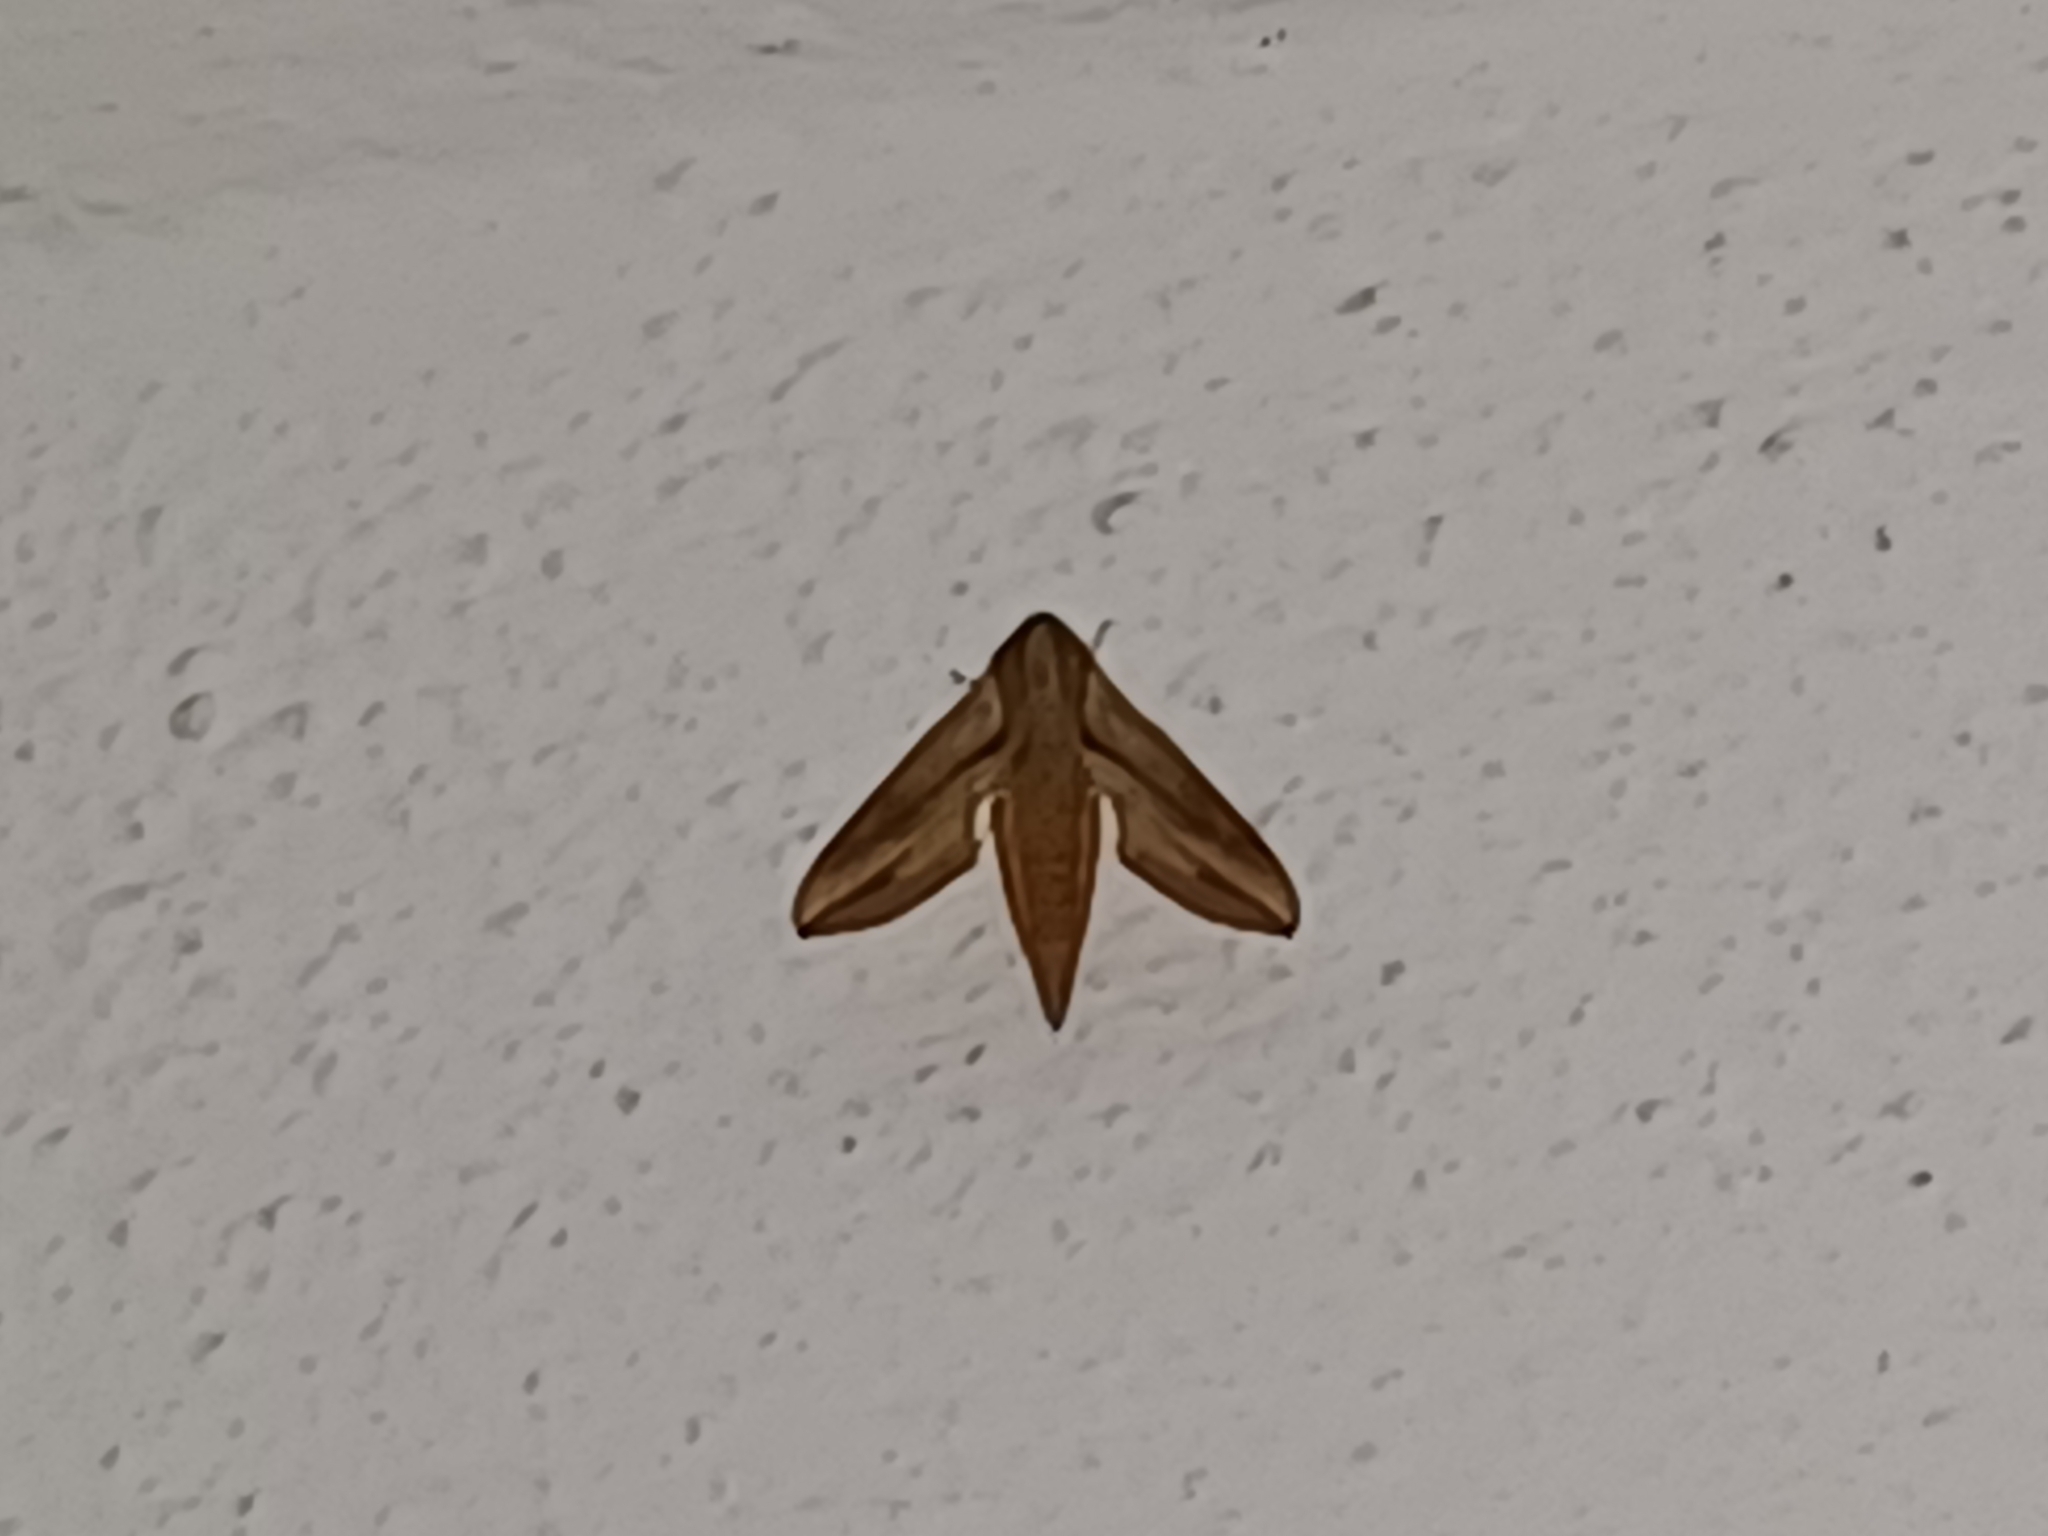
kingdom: Animalia
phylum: Arthropoda
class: Insecta
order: Lepidoptera
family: Sphingidae
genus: Hippotion
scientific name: Hippotion rosetta
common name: Vine hawk moth
